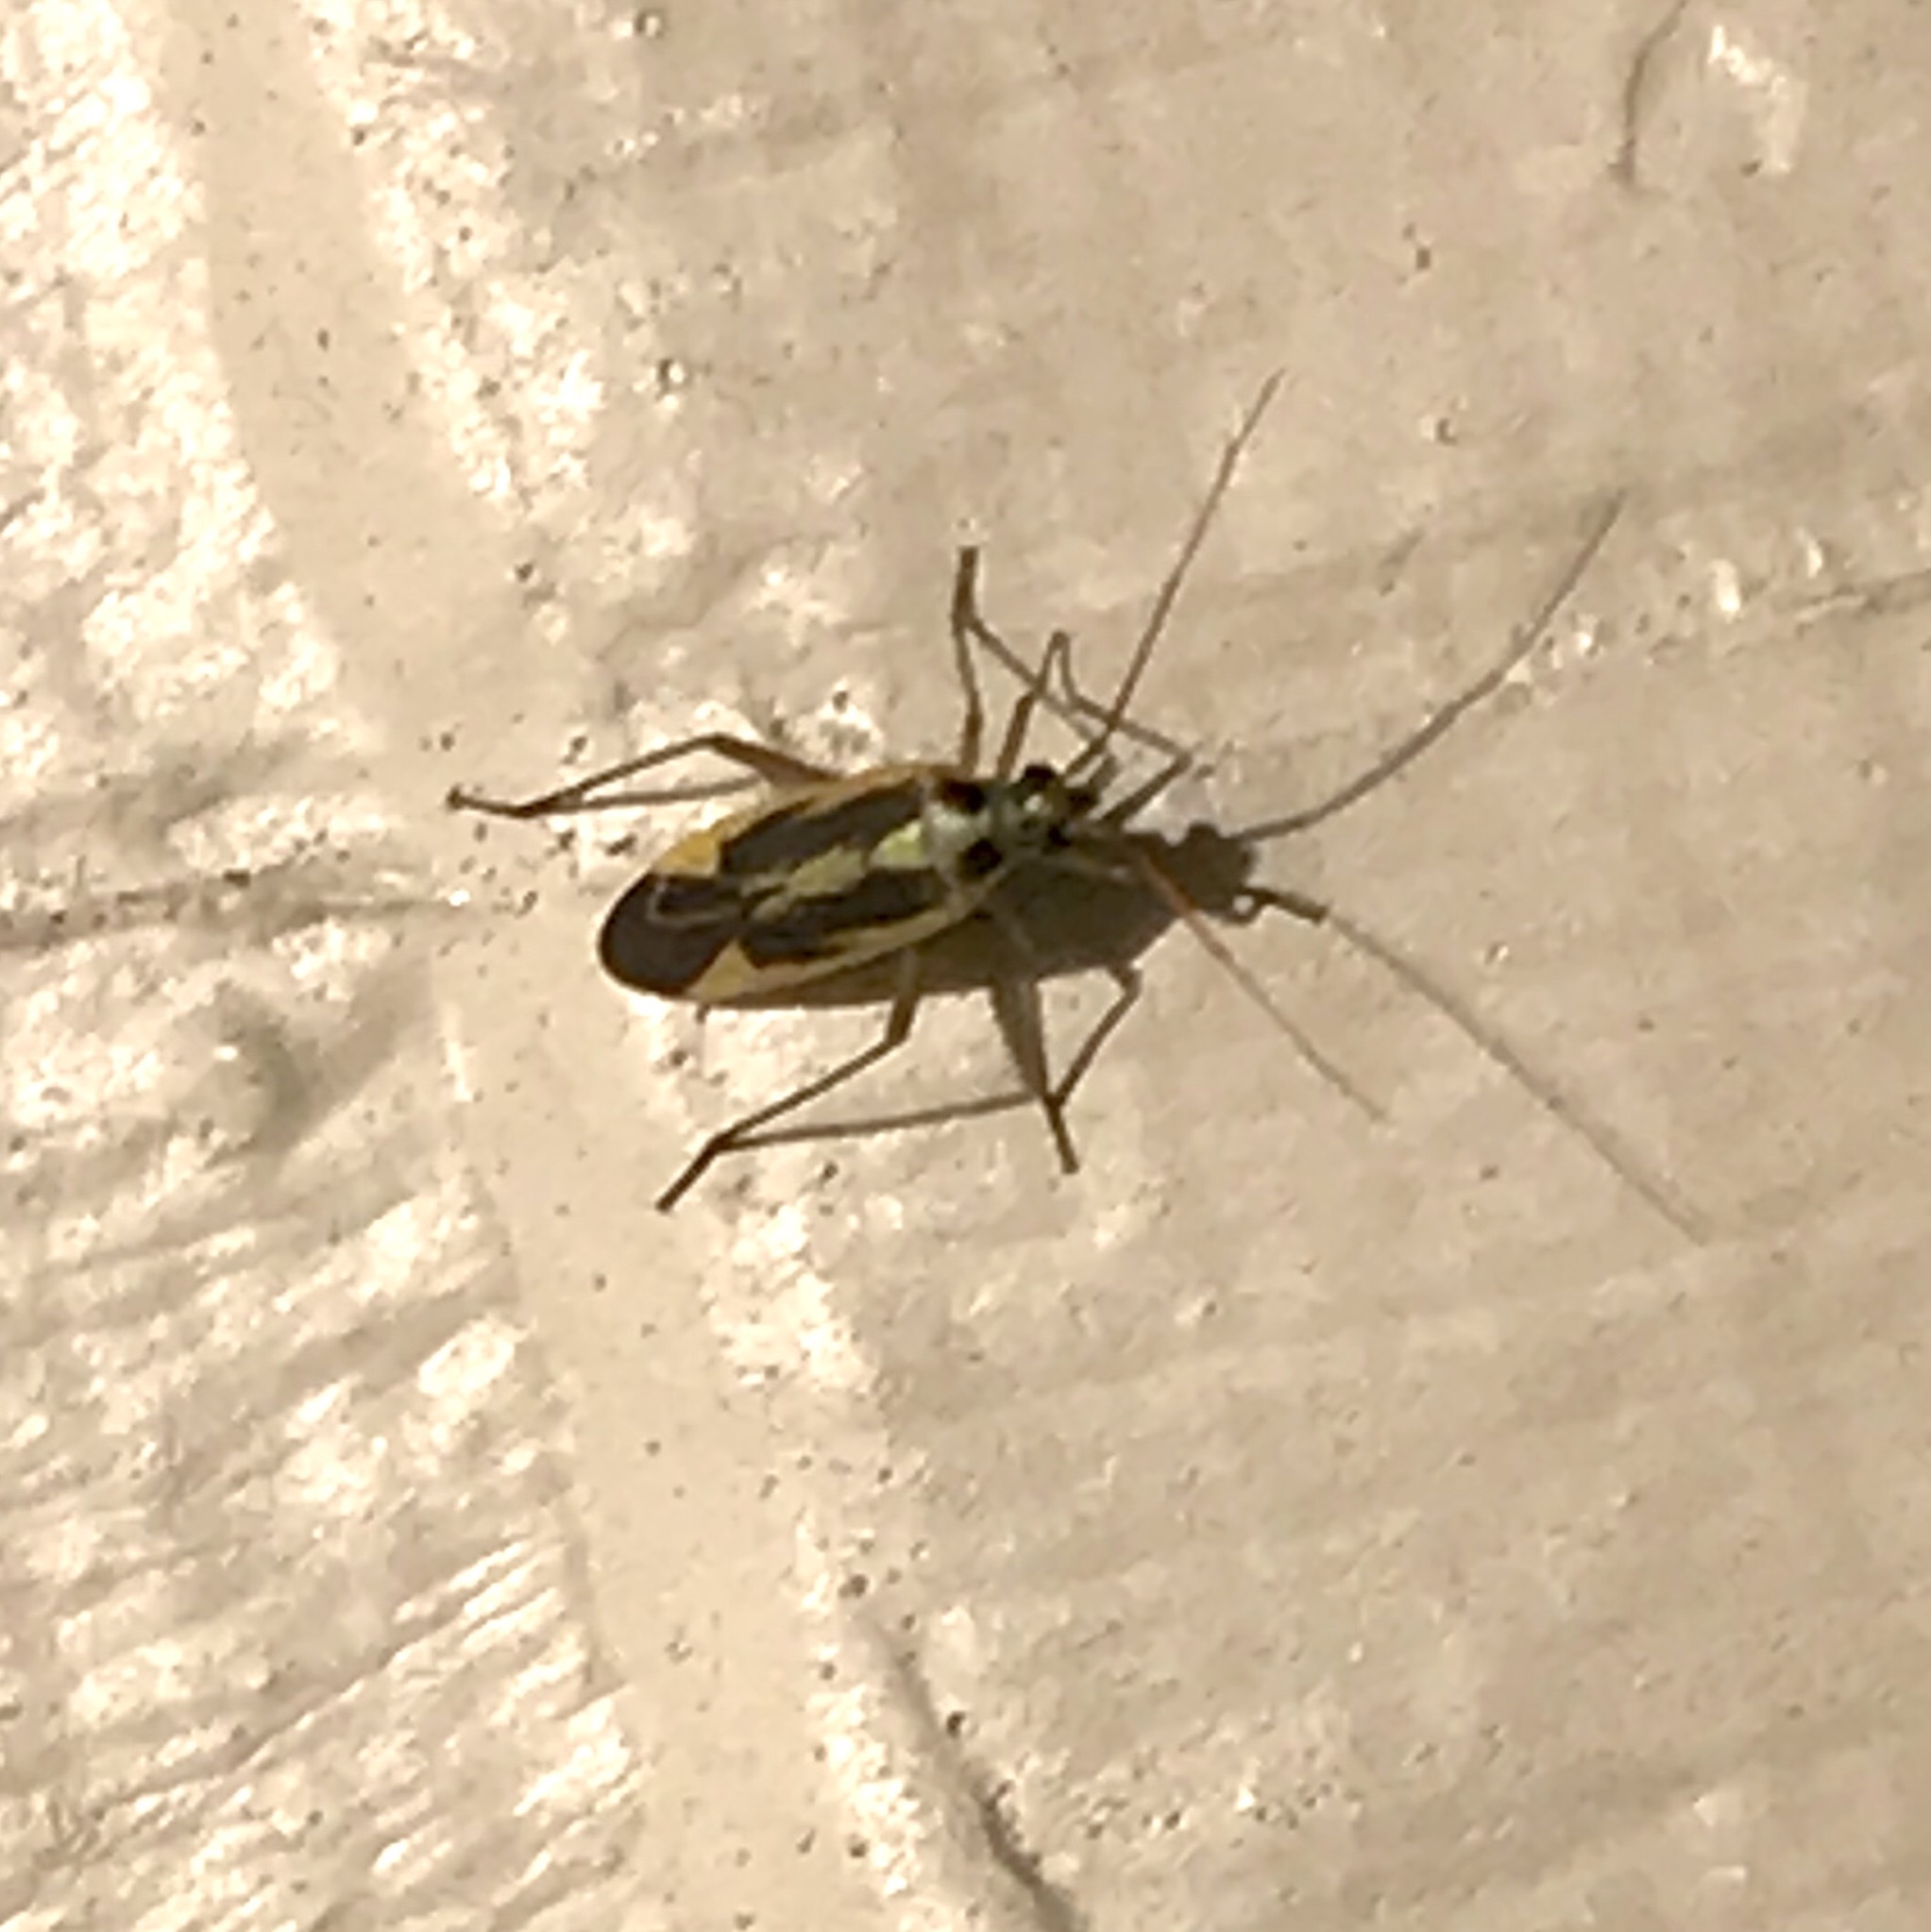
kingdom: Animalia
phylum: Arthropoda
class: Insecta
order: Hemiptera
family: Miridae
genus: Stenotus
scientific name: Stenotus binotatus
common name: Plant bug
